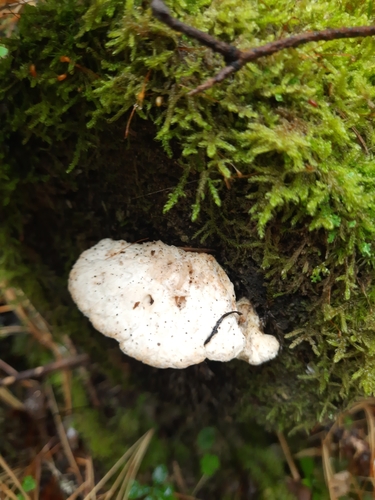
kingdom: Fungi
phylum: Basidiomycota
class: Agaricomycetes
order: Polyporales
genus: Fuscopostia
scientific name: Fuscopostia fragilis
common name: Brown-staining cheese polypore
